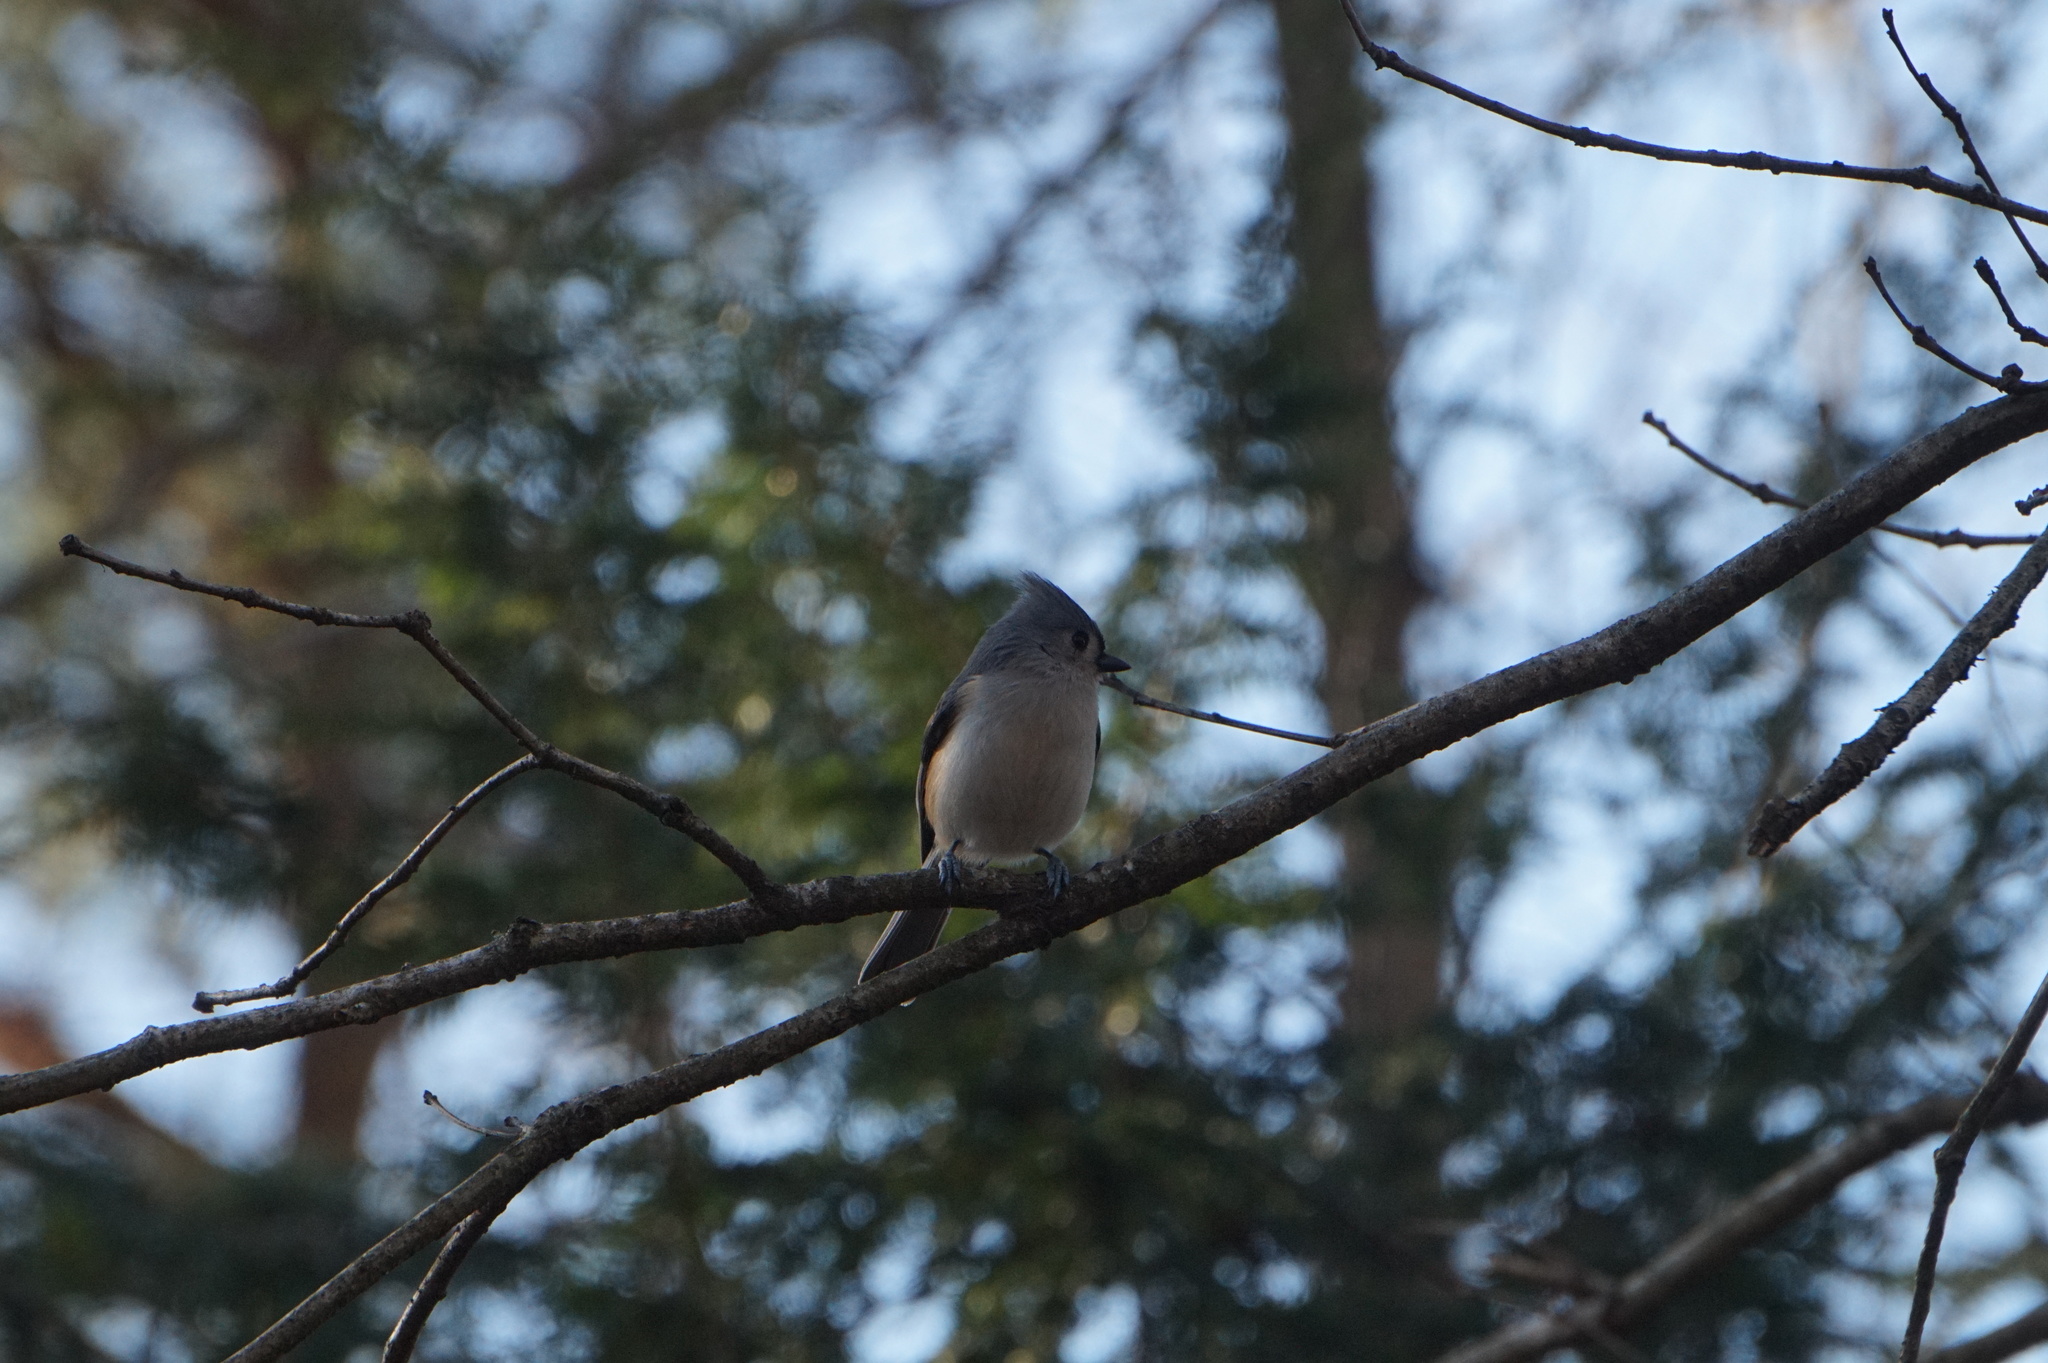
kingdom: Animalia
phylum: Chordata
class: Aves
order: Passeriformes
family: Paridae
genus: Baeolophus
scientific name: Baeolophus bicolor
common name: Tufted titmouse
